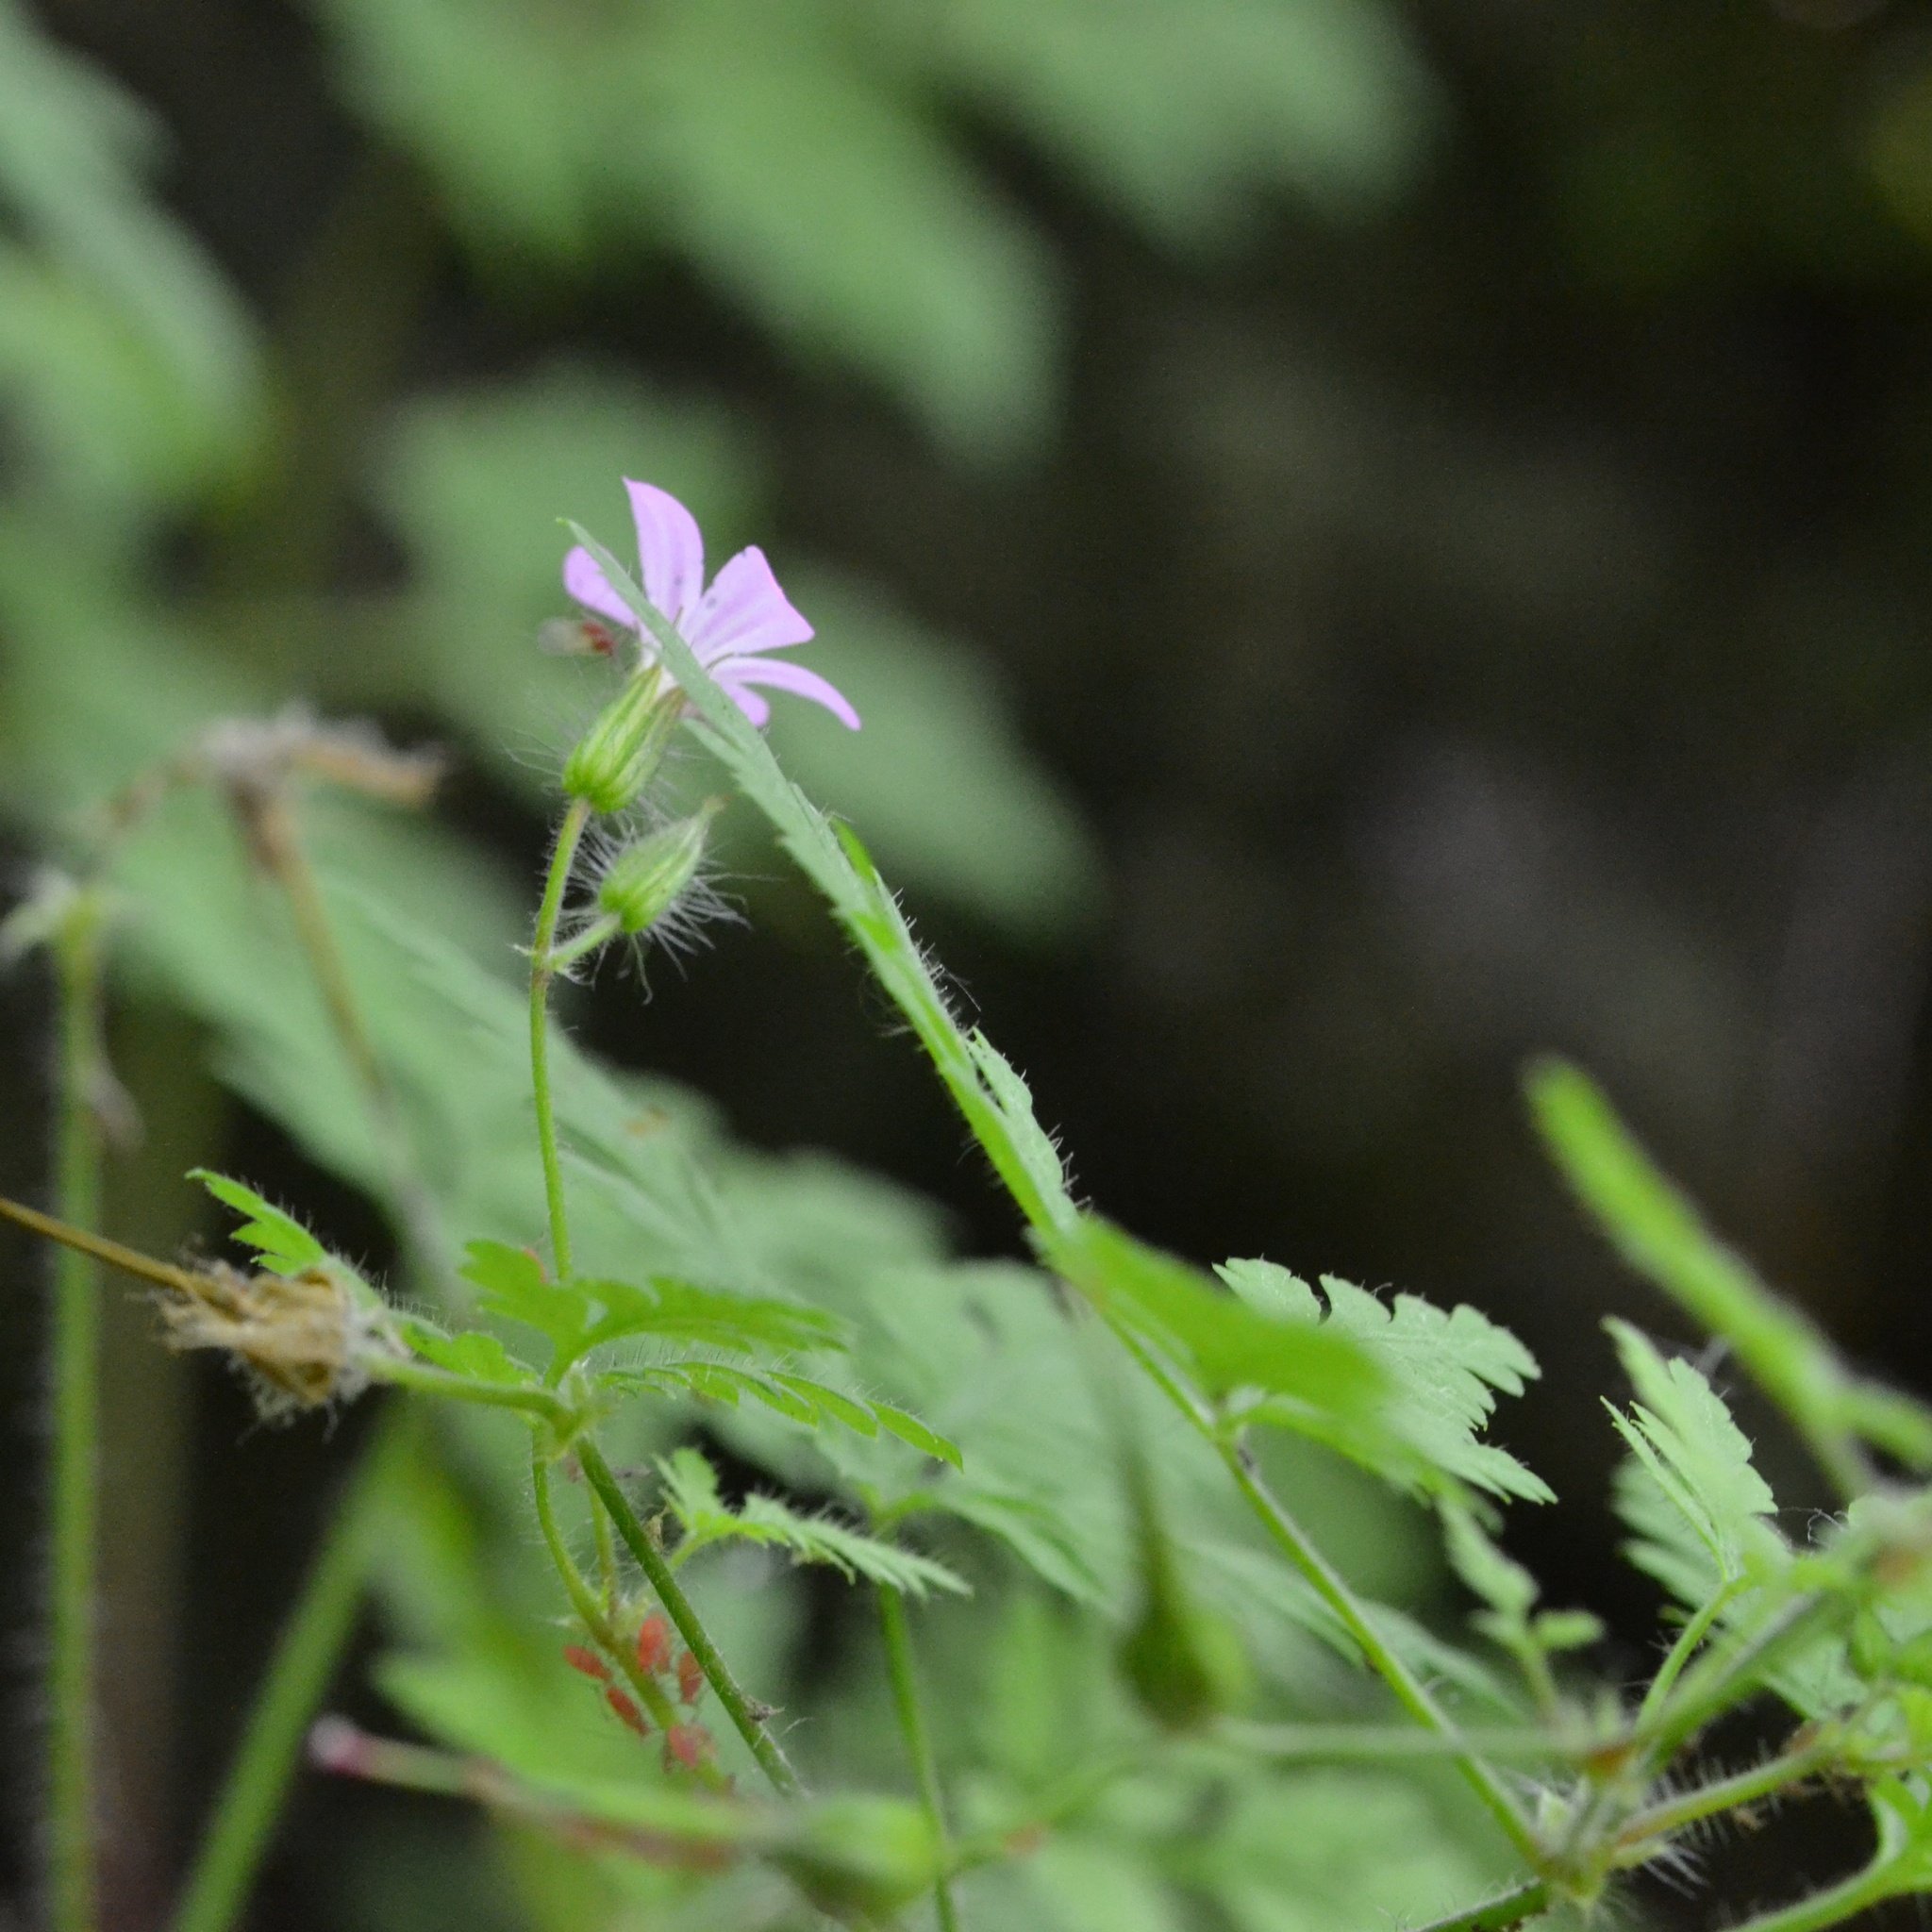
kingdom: Plantae
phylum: Tracheophyta
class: Magnoliopsida
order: Geraniales
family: Geraniaceae
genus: Geranium
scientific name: Geranium robertianum
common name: Herb-robert
